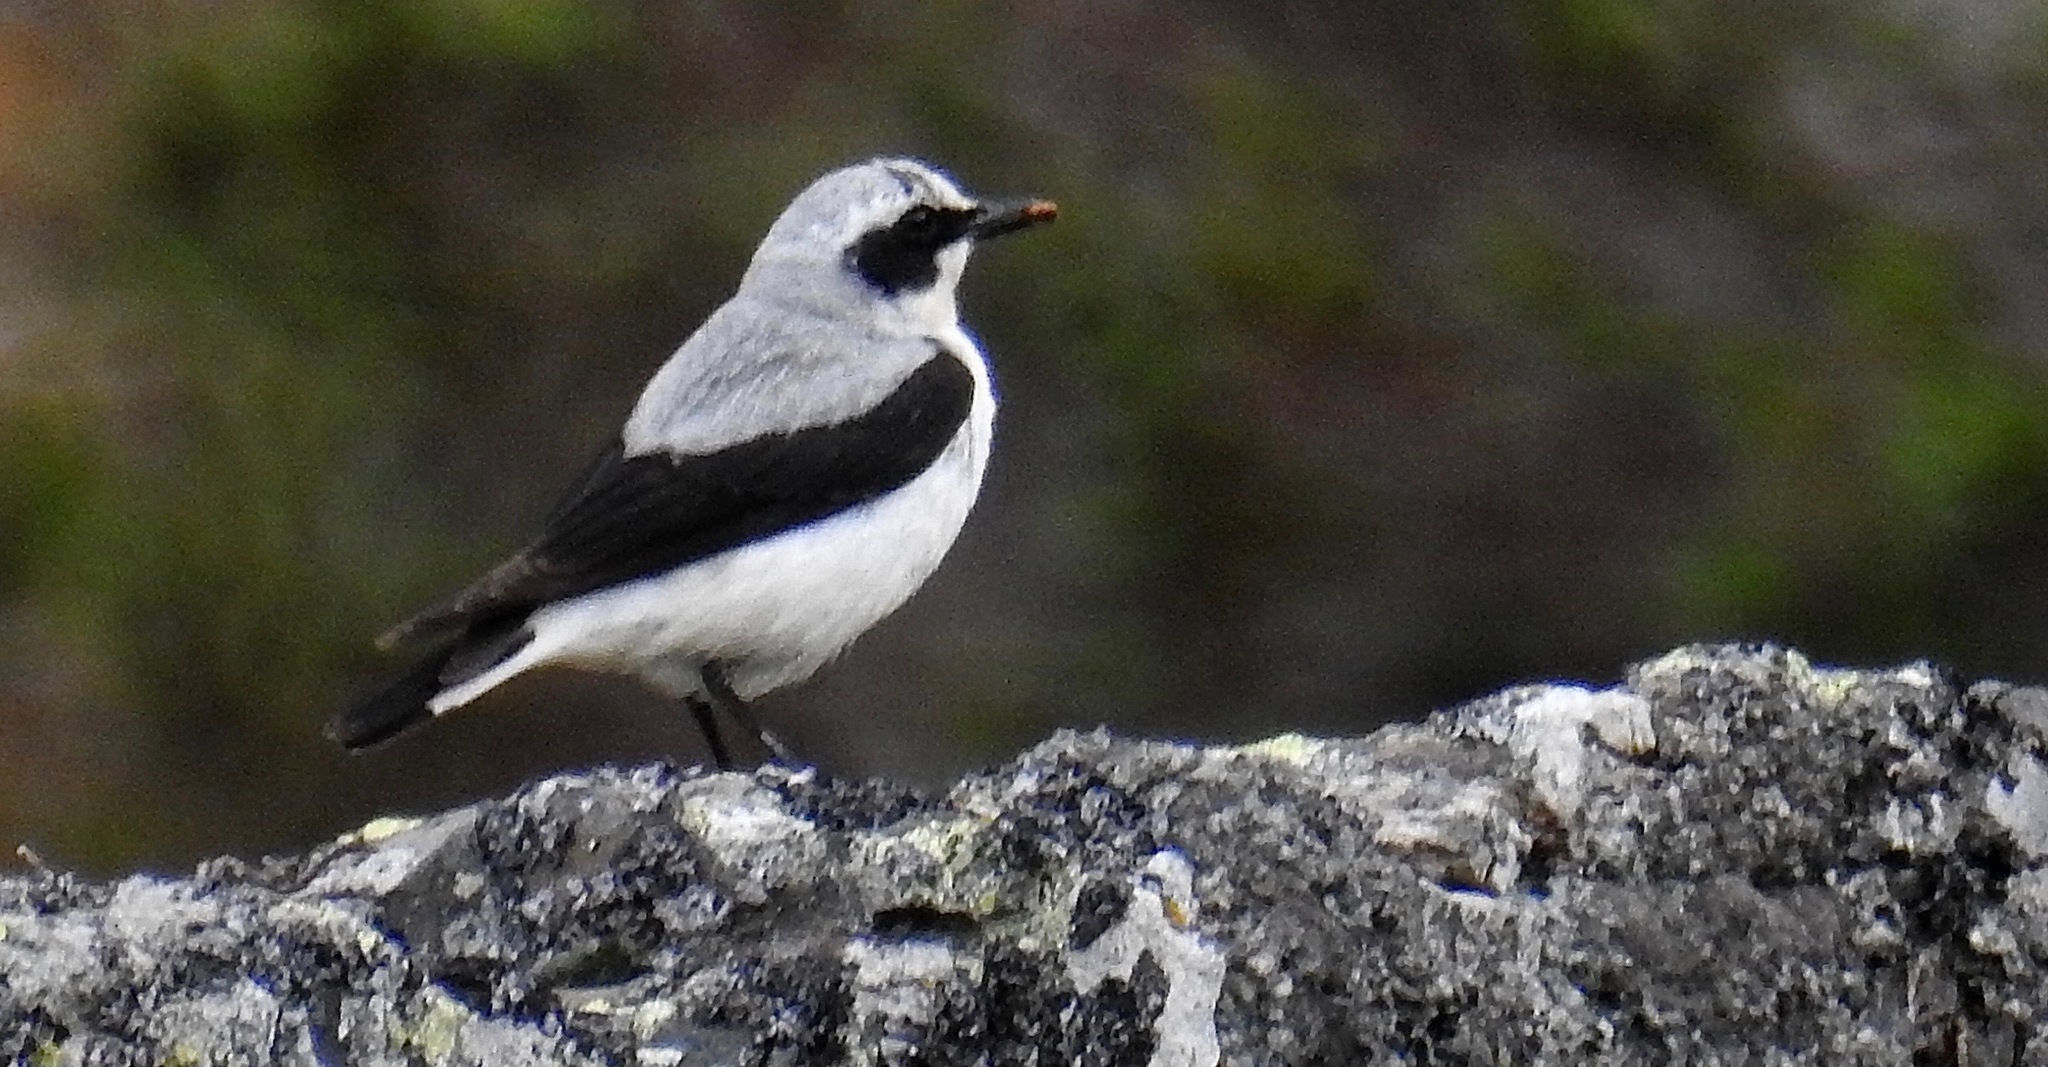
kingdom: Animalia
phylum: Chordata
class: Aves
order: Passeriformes
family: Muscicapidae
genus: Oenanthe
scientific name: Oenanthe oenanthe
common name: Northern wheatear
